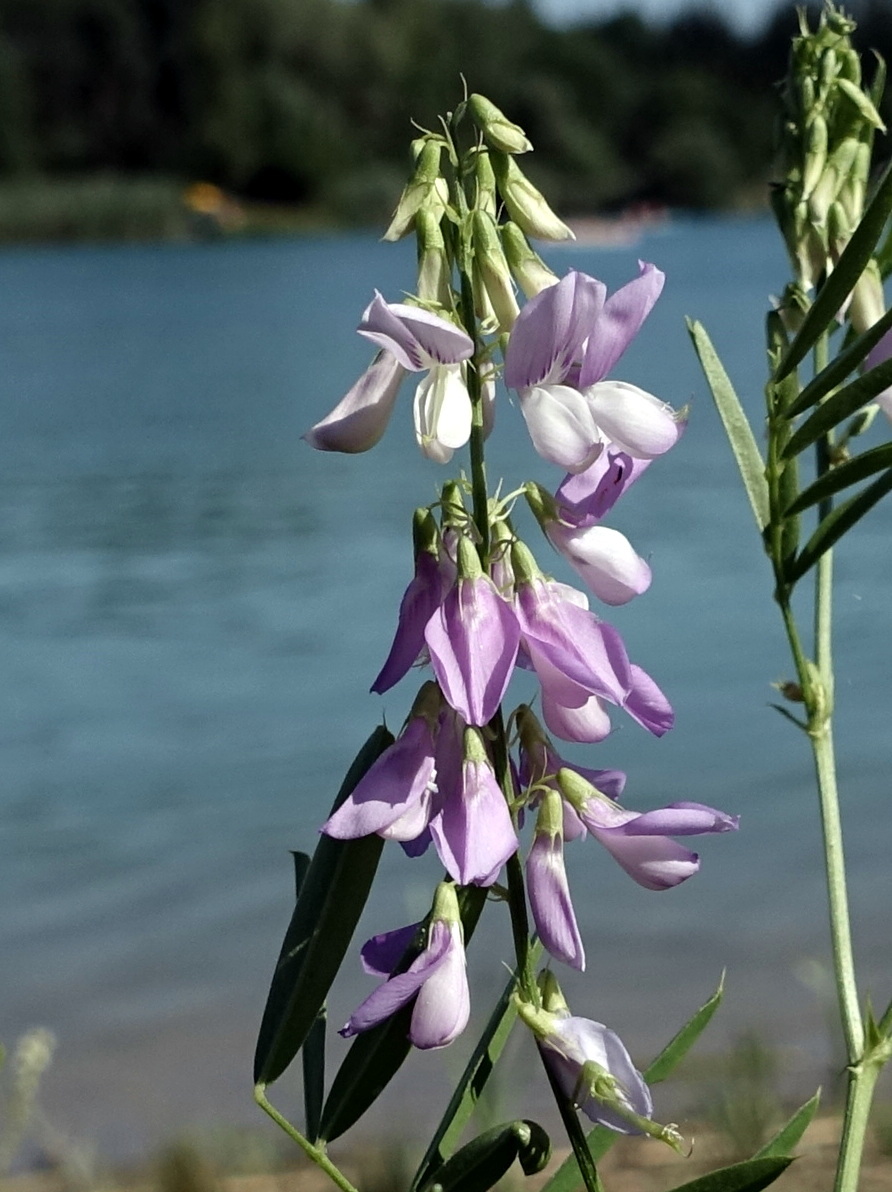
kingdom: Plantae
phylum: Tracheophyta
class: Magnoliopsida
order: Fabales
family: Fabaceae
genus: Galega
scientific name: Galega officinalis
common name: Goat's-rue
